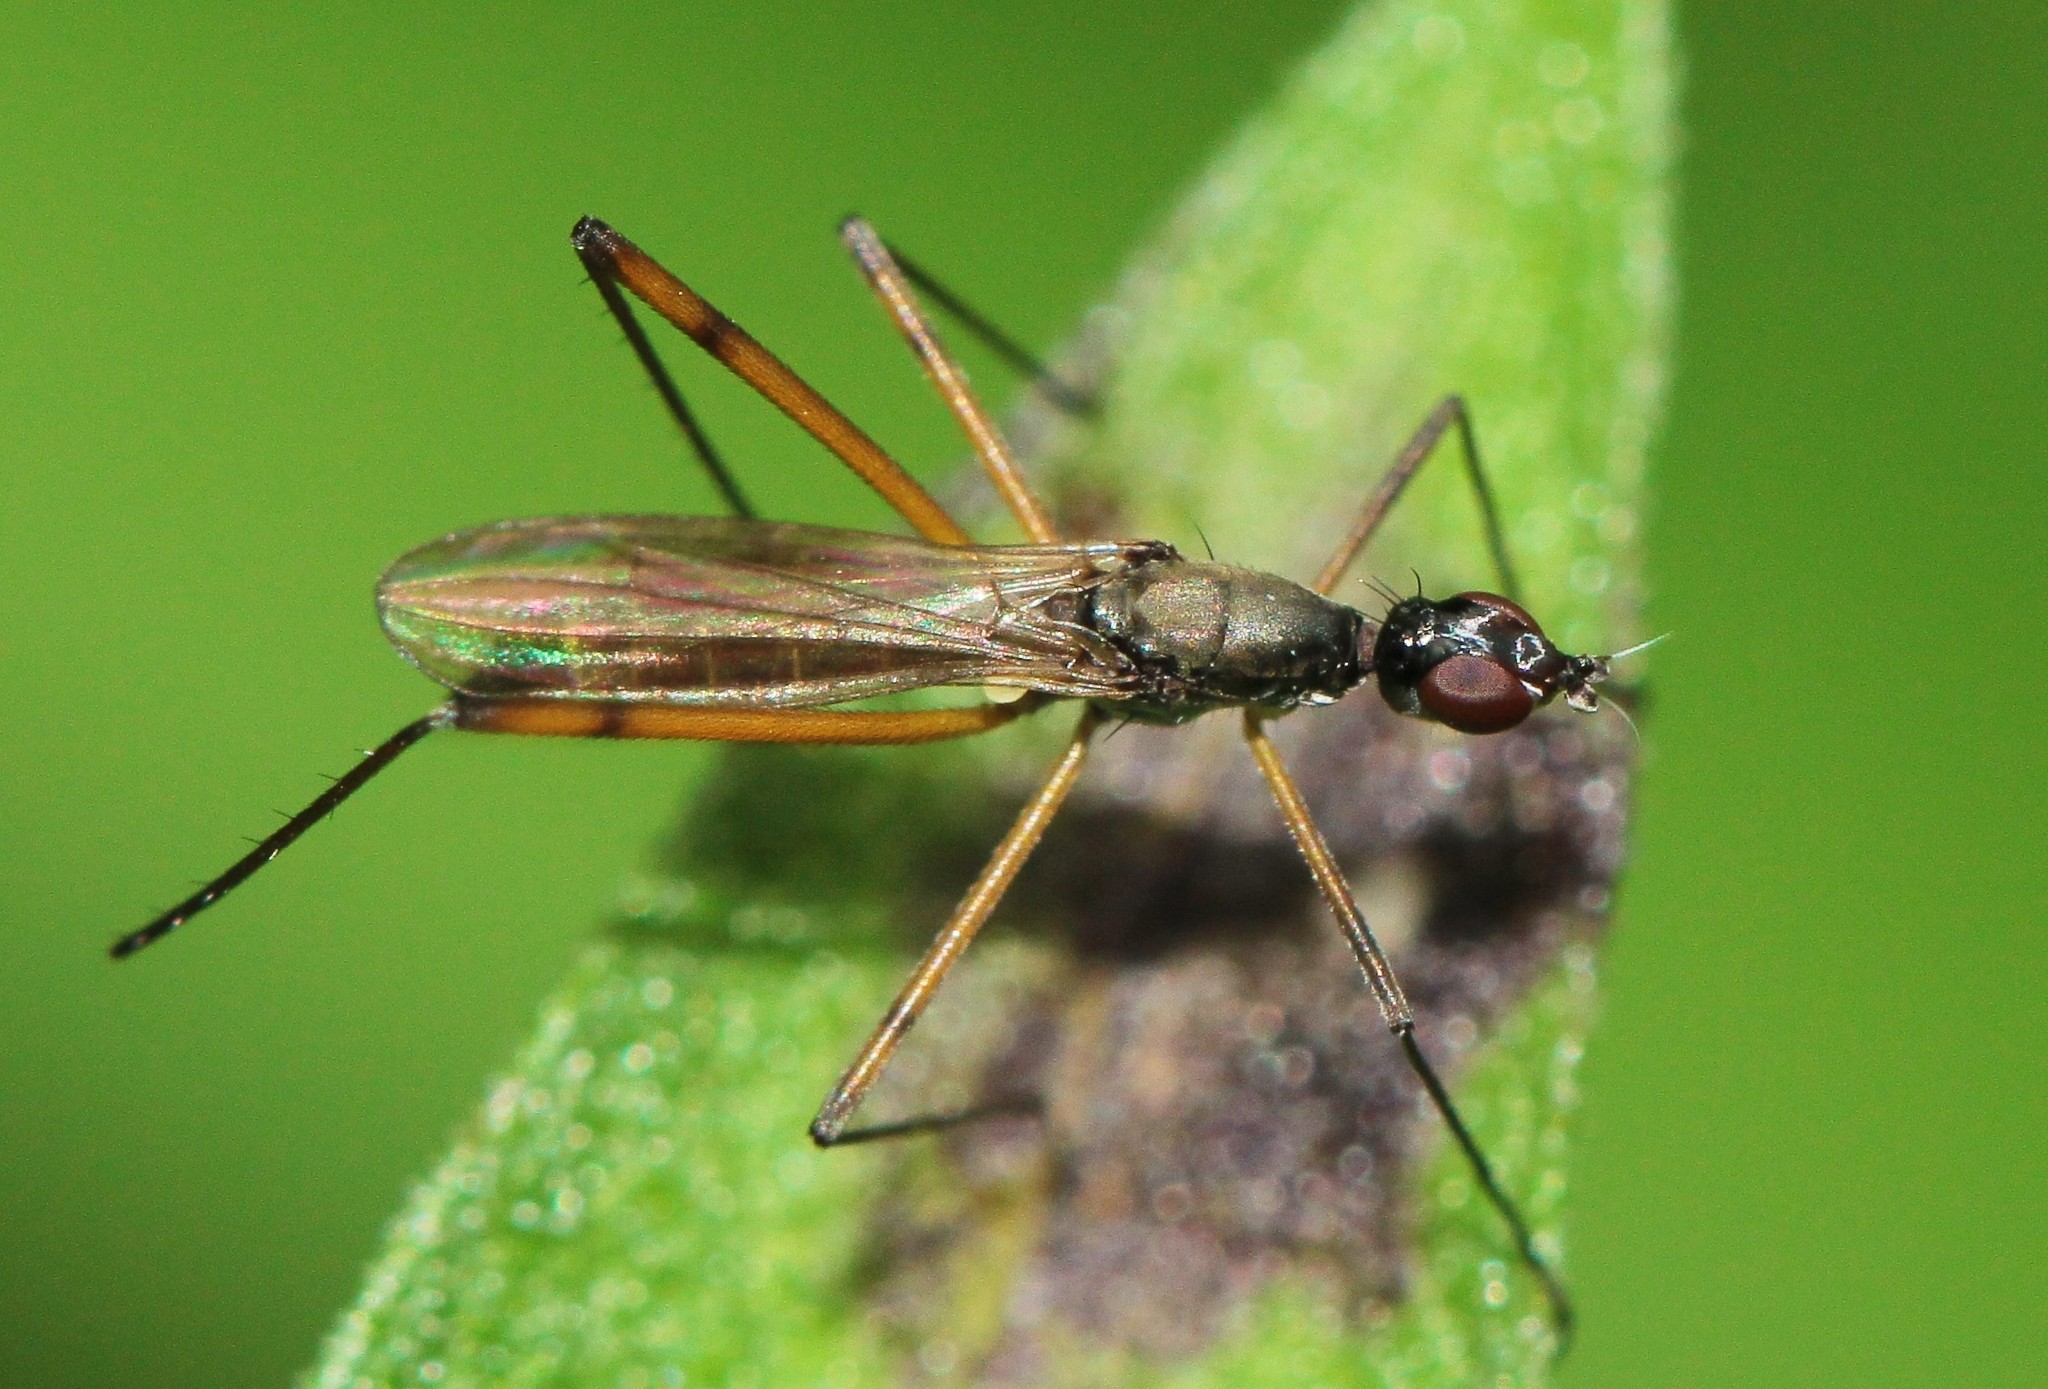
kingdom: Animalia
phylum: Arthropoda
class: Insecta
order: Diptera
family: Micropezidae
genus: Micropeza
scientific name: Micropeza corrigiolata
